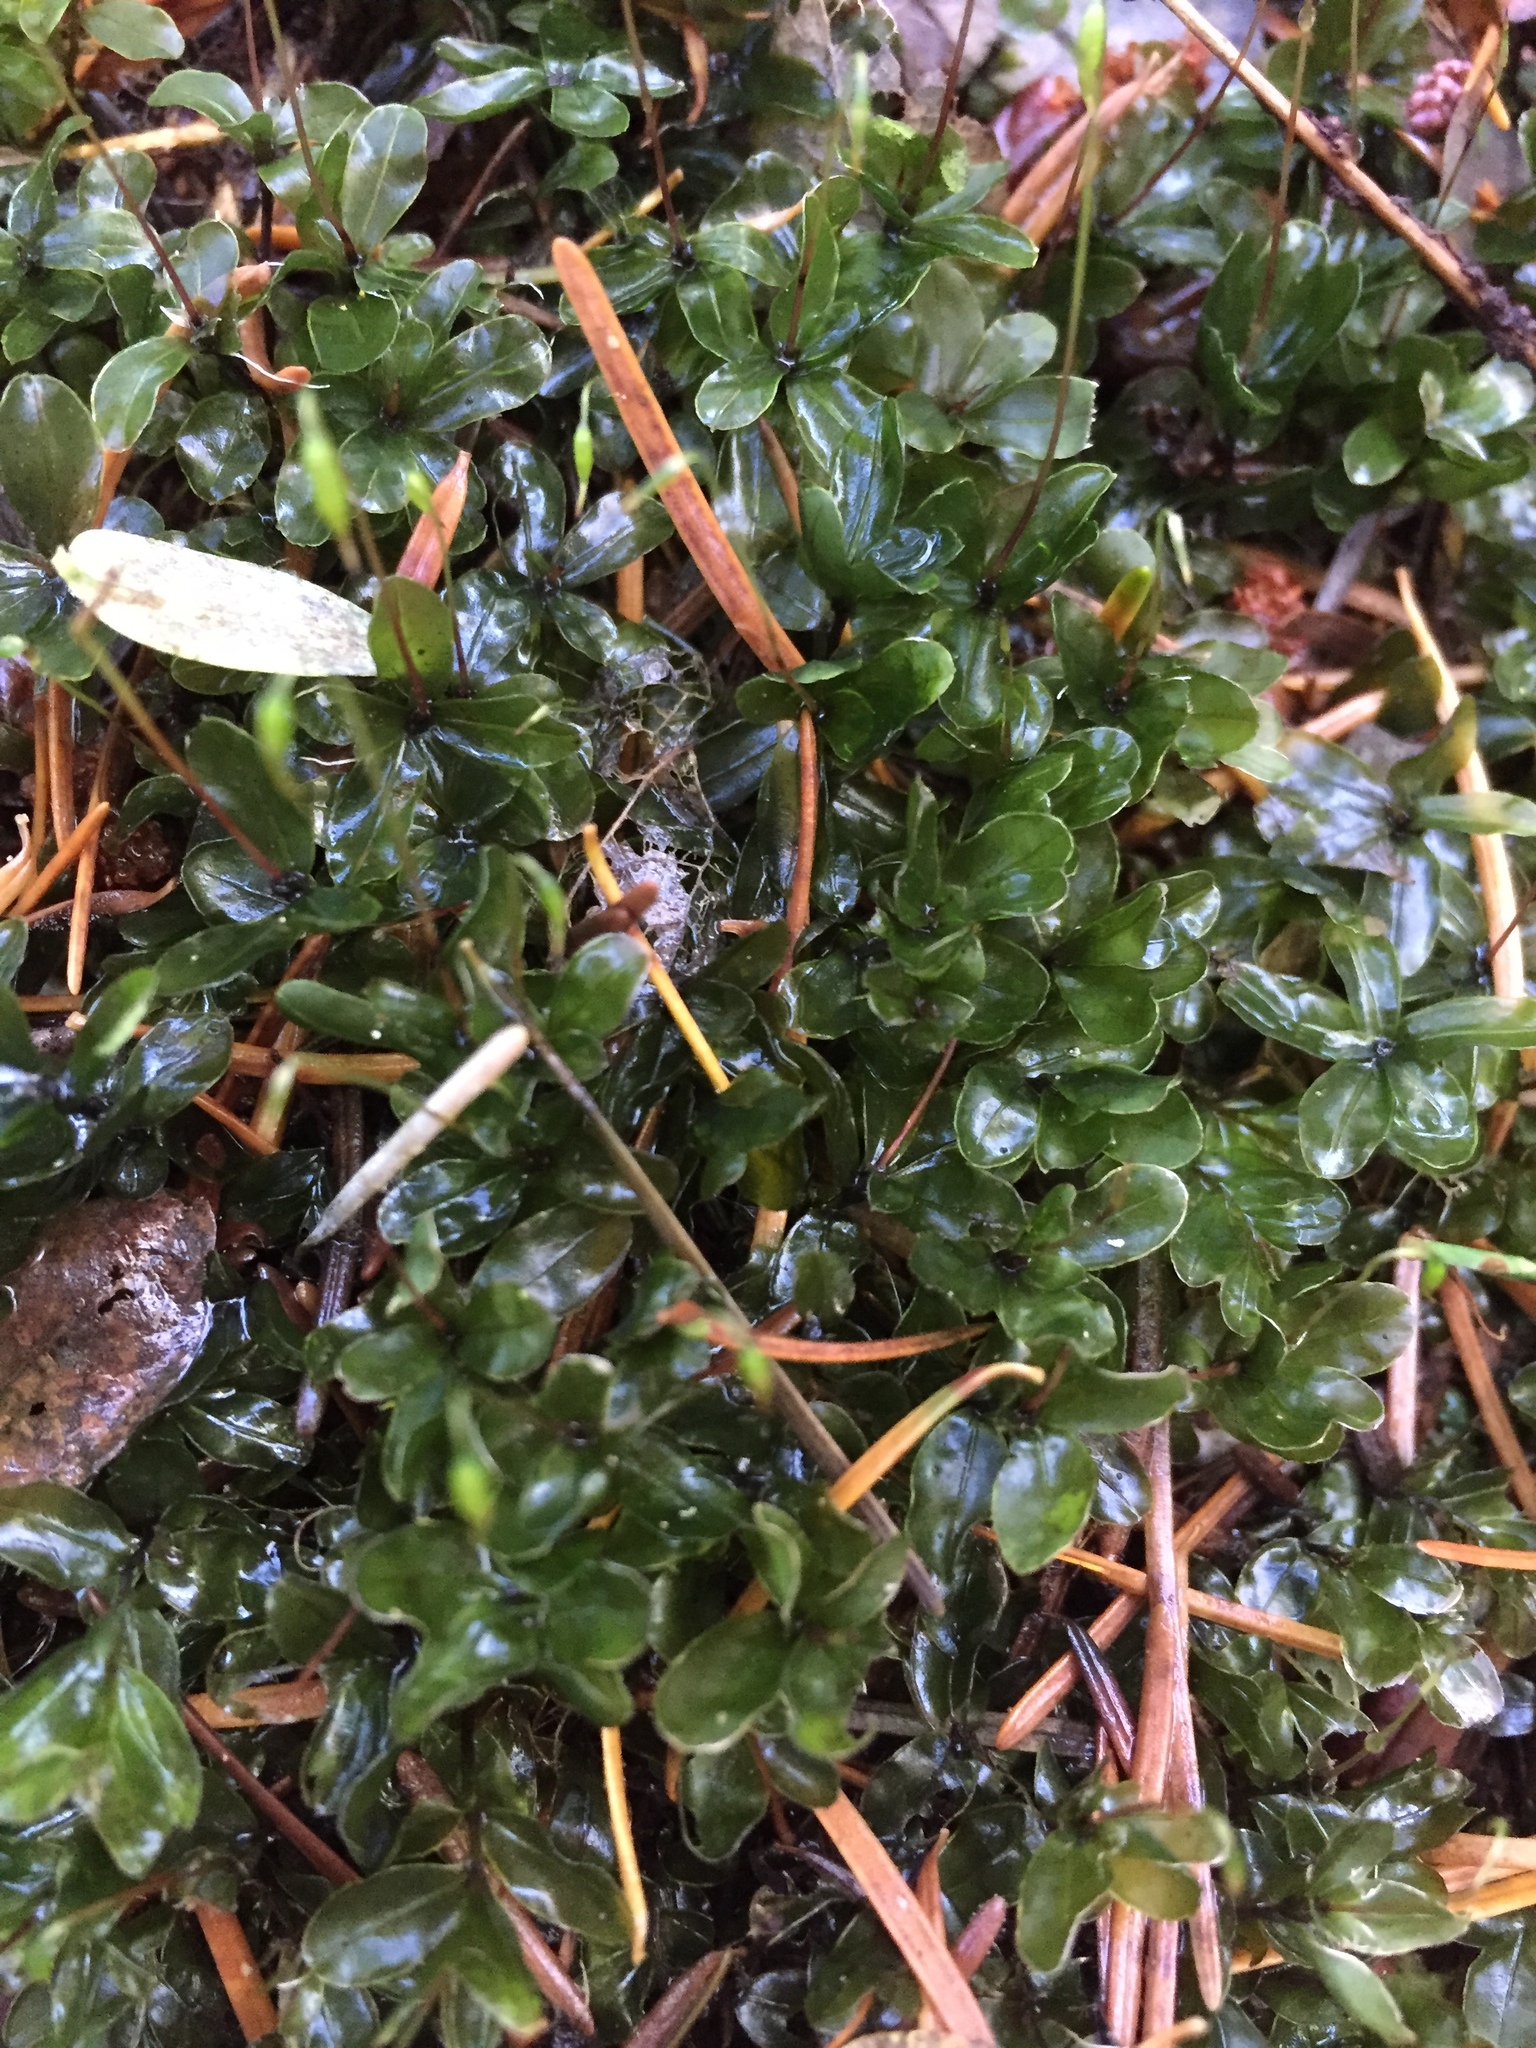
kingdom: Plantae
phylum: Bryophyta
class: Bryopsida
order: Bryales
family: Mniaceae
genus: Rhizomnium
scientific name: Rhizomnium glabrescens
